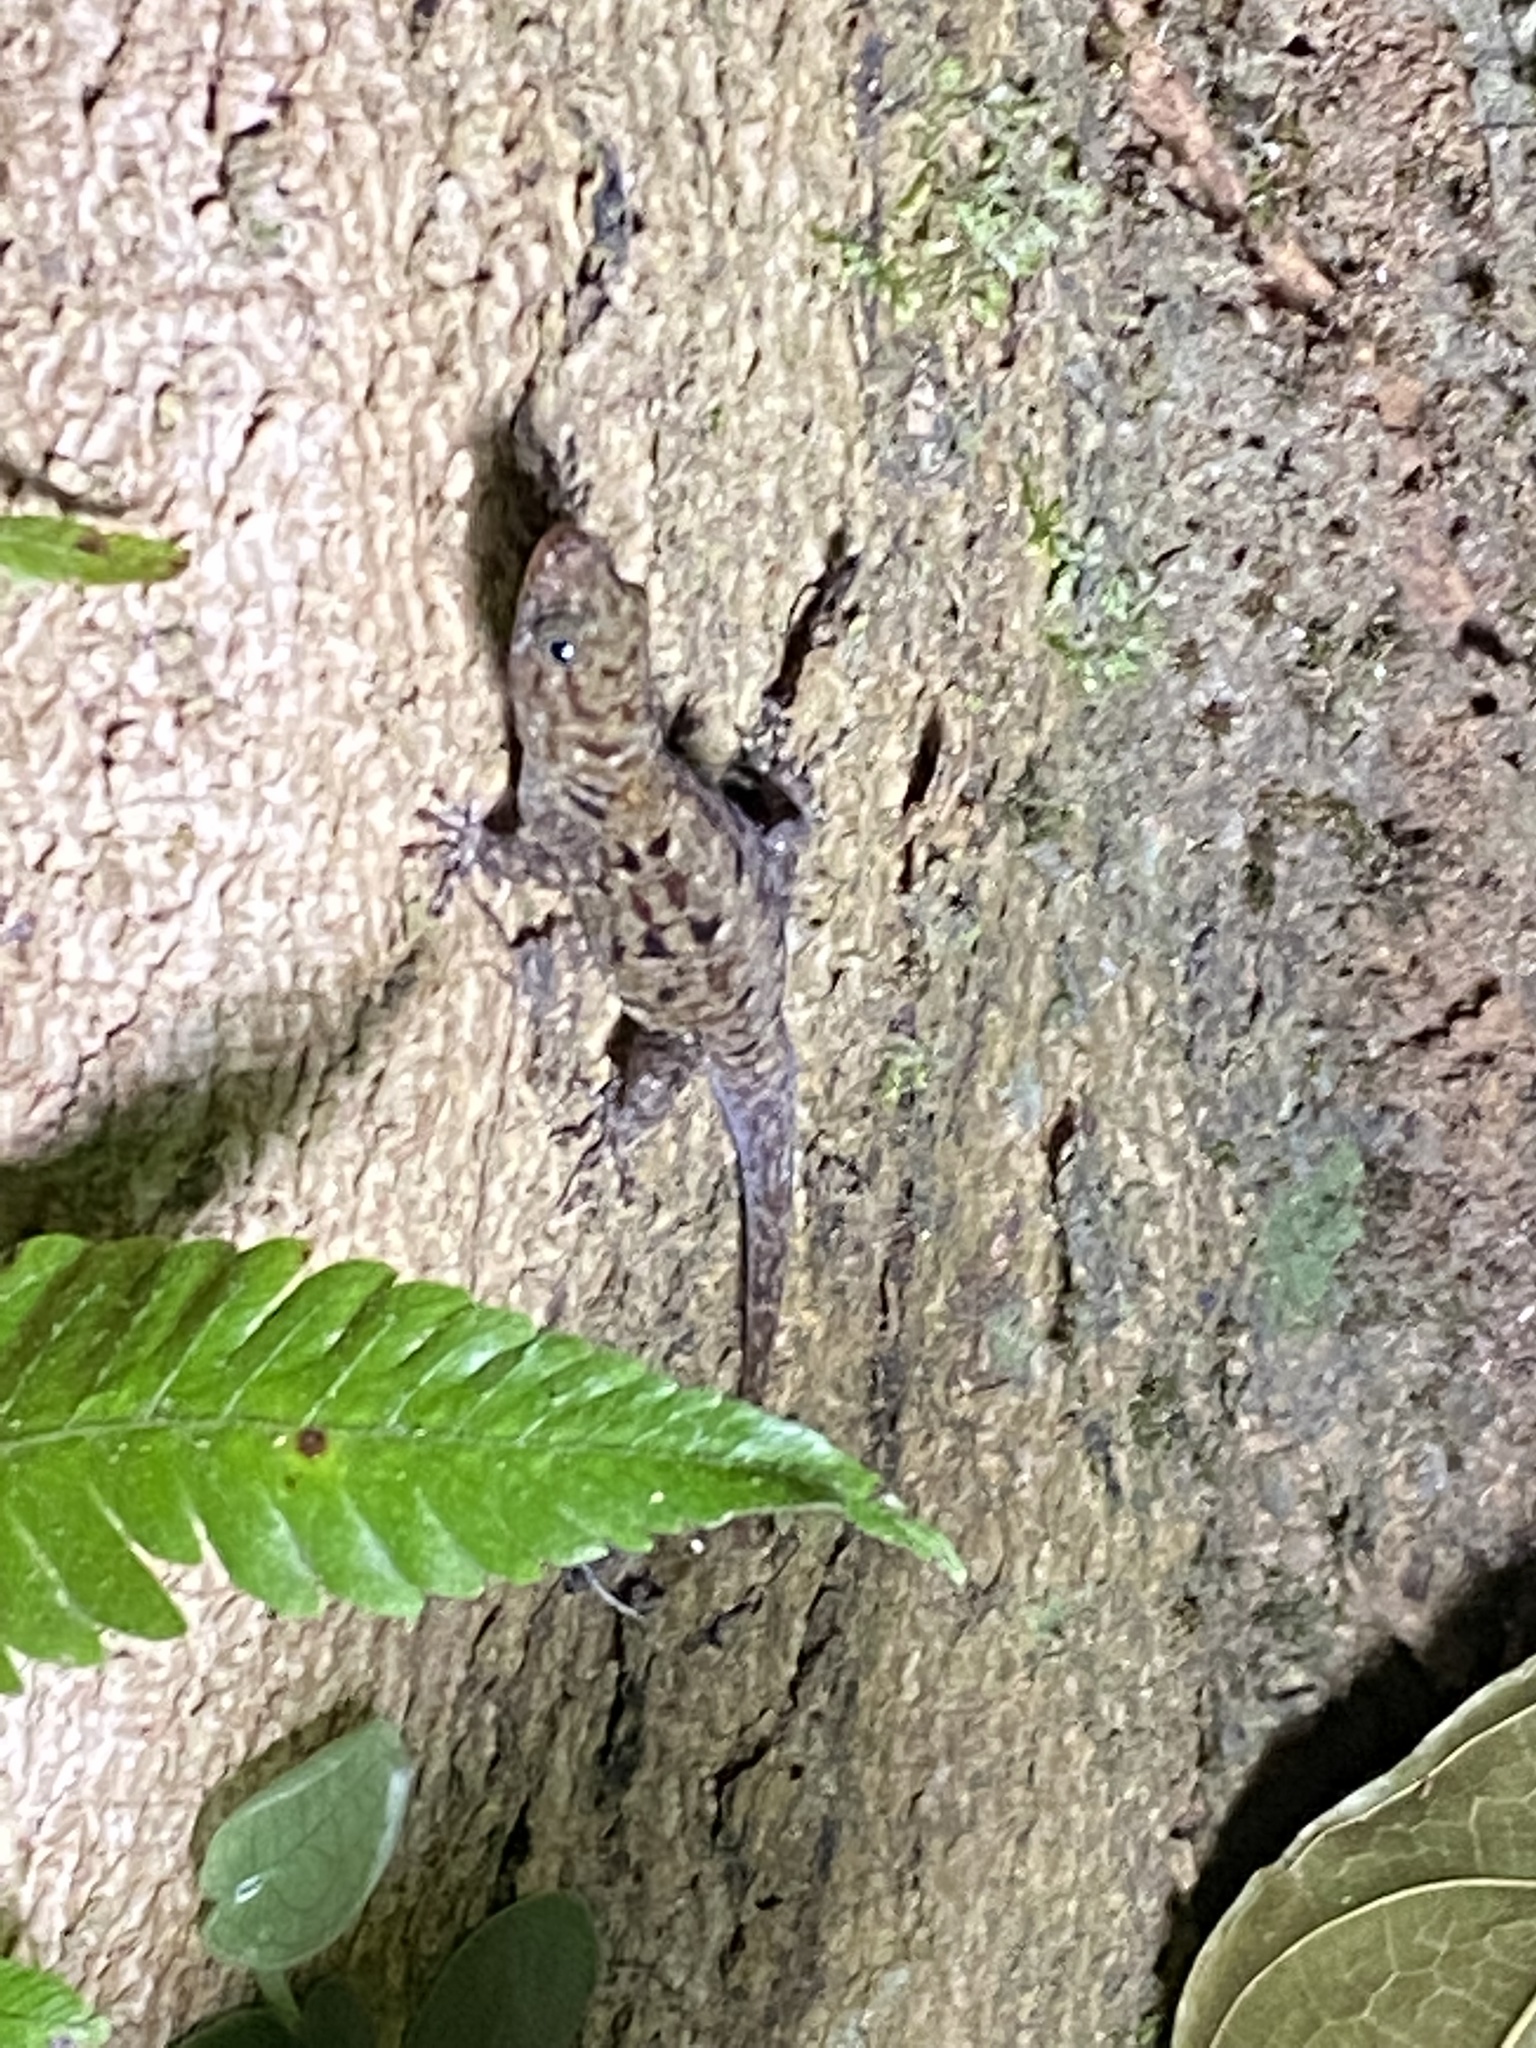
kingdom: Animalia
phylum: Chordata
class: Squamata
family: Sphaerodactylidae
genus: Gonatodes
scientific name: Gonatodes albogularis
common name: Yellow-headed gecko
